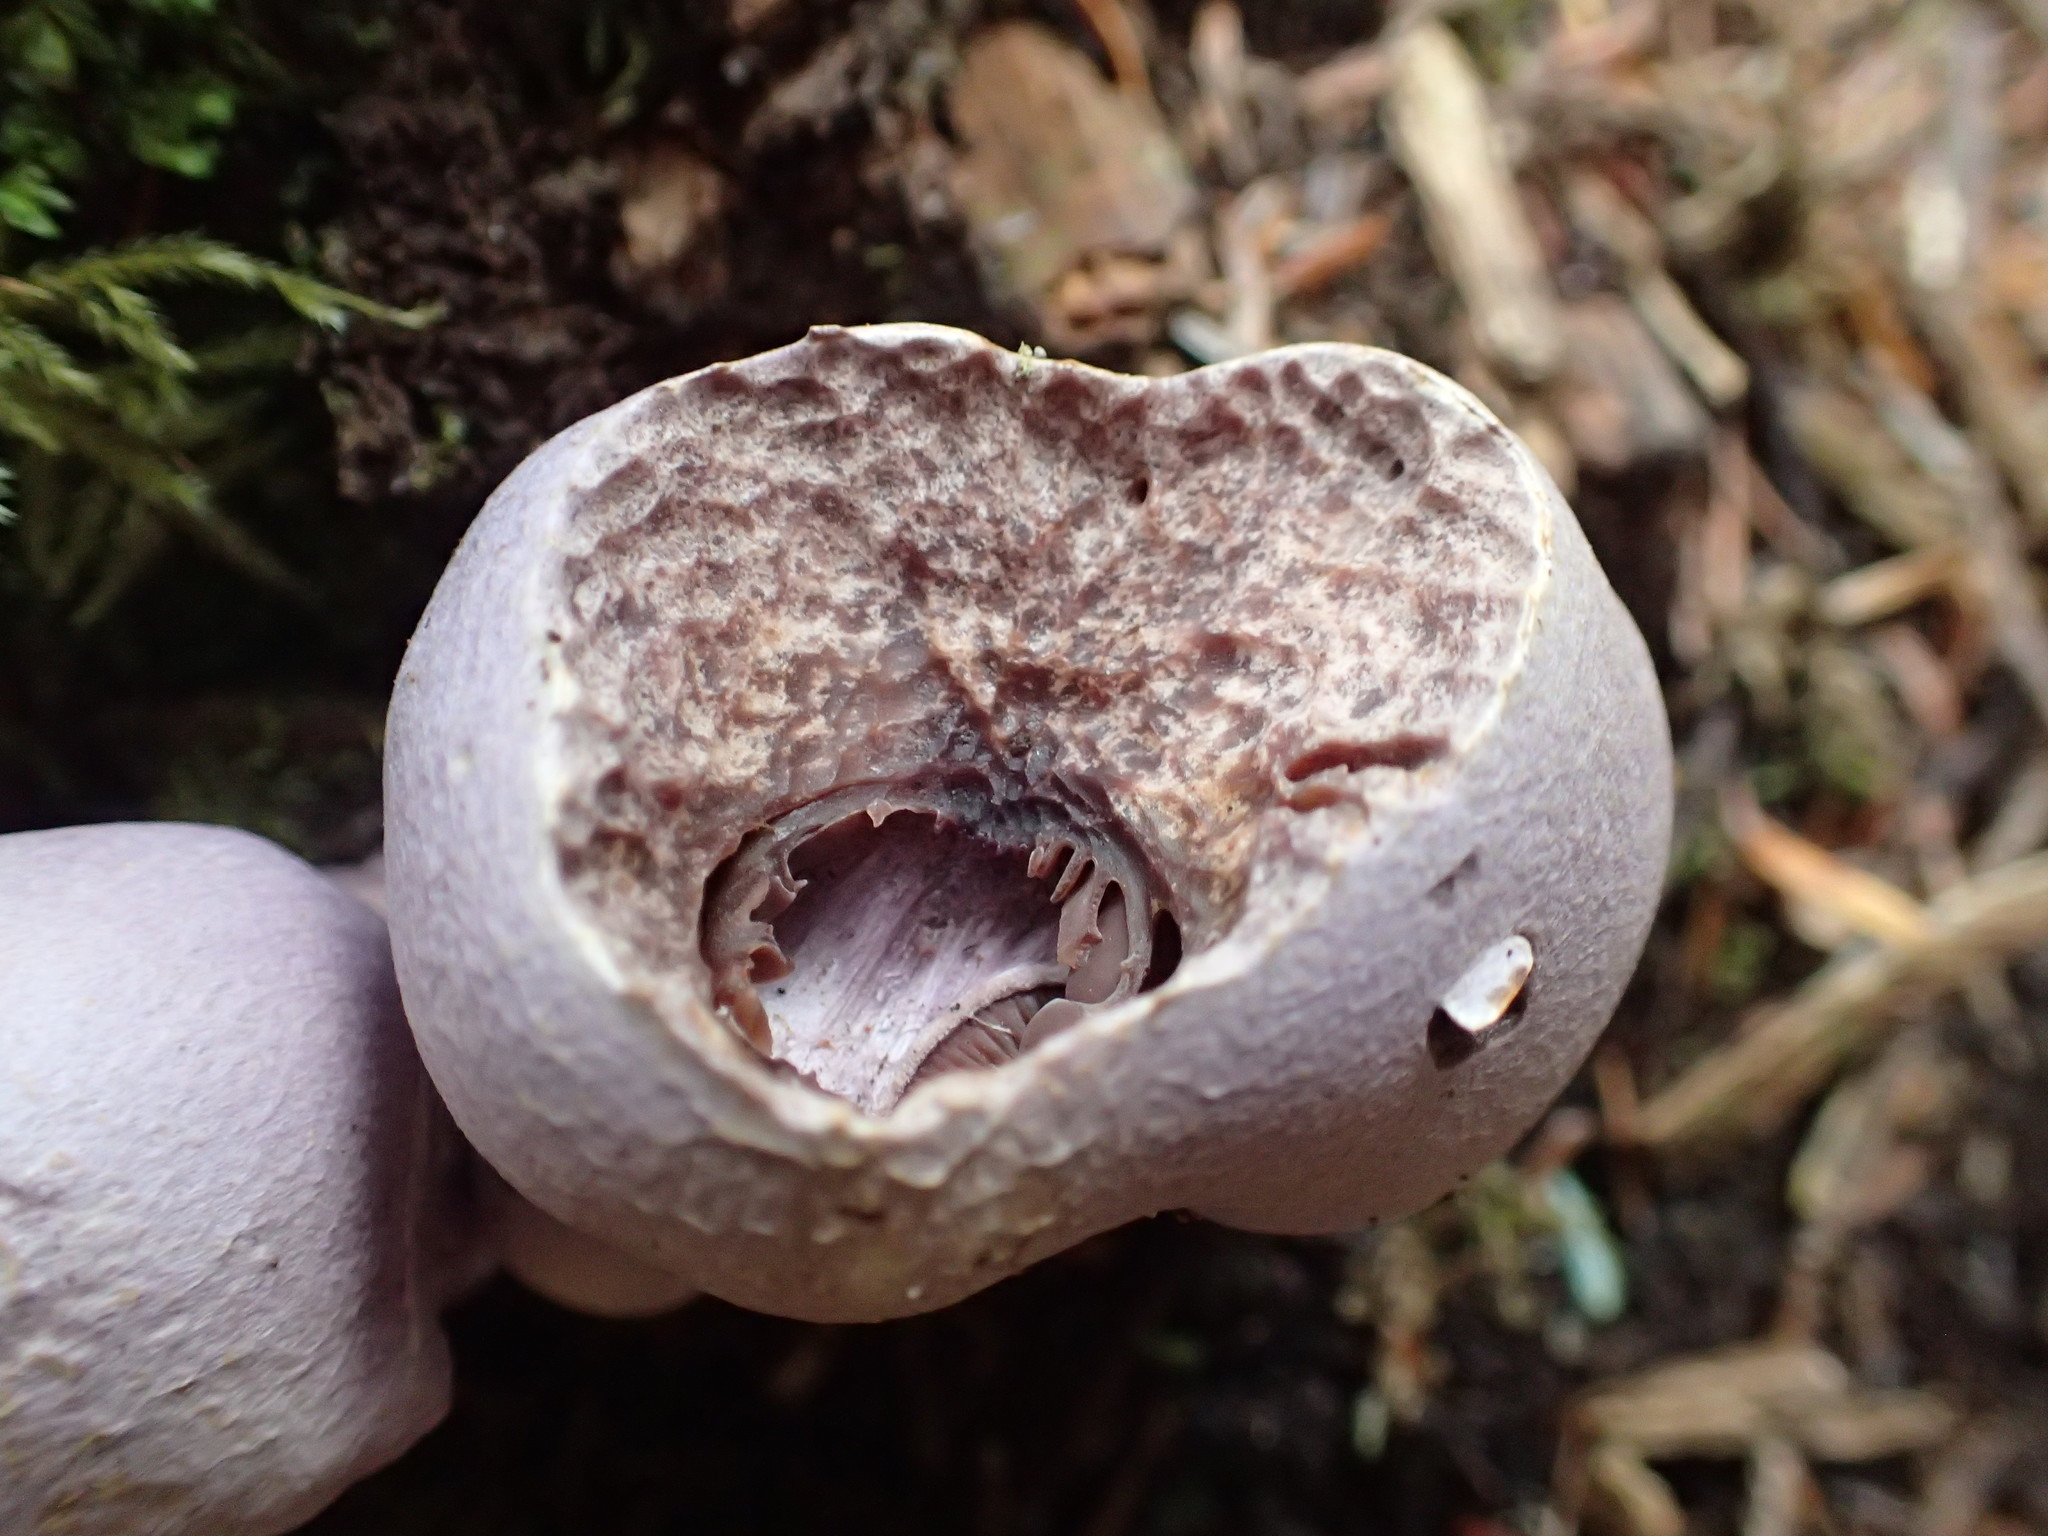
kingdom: Fungi
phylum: Basidiomycota
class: Agaricomycetes
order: Agaricales
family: Cortinariaceae
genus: Cortinarius
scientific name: Cortinarius traganus
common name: Gassy webcap
